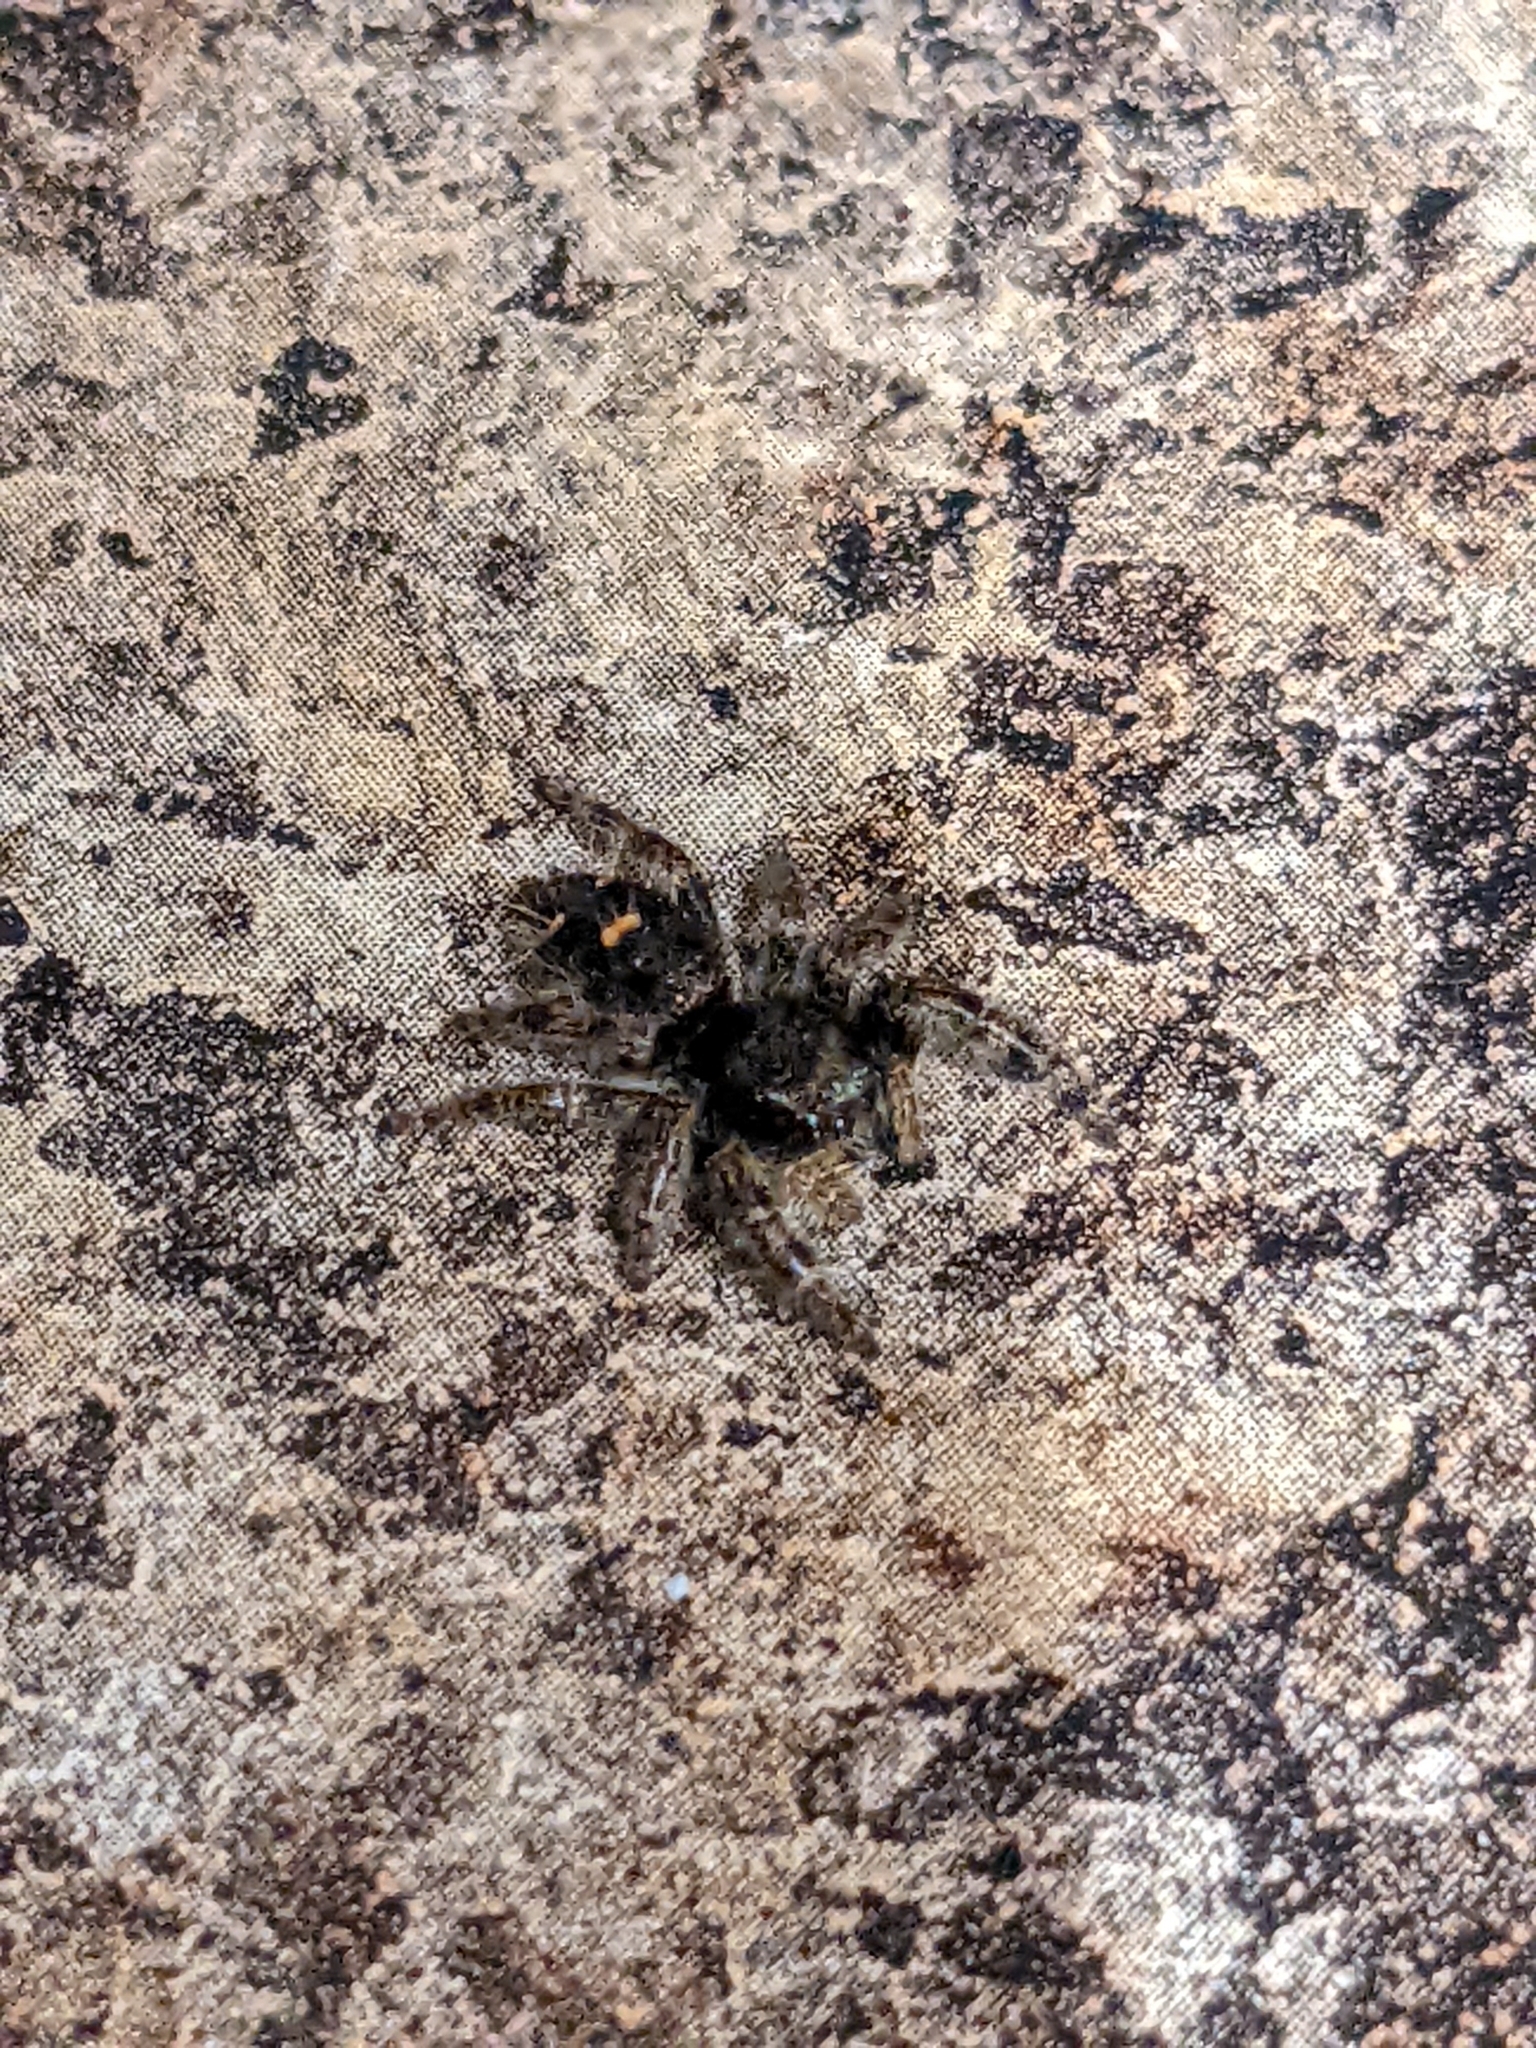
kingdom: Animalia
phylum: Arthropoda
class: Arachnida
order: Araneae
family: Salticidae
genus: Phidippus
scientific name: Phidippus audax
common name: Bold jumper
